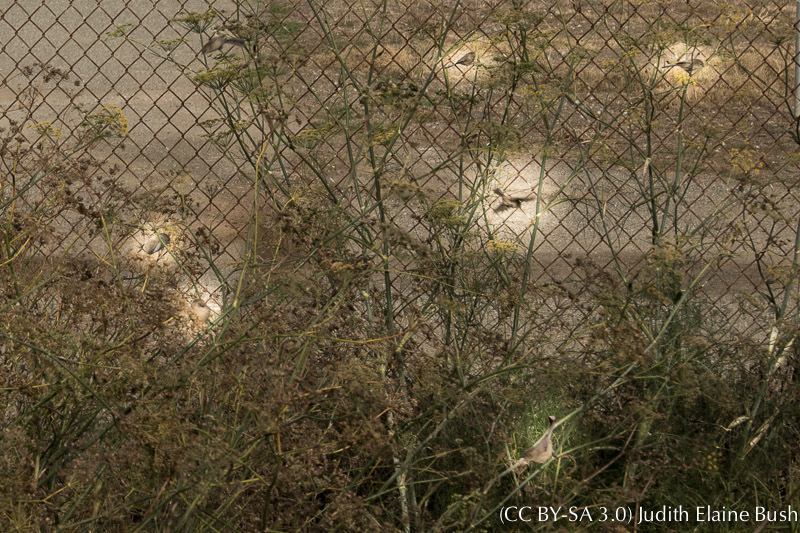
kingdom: Animalia
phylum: Chordata
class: Aves
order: Passeriformes
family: Aegithalidae
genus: Psaltriparus
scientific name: Psaltriparus minimus
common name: American bushtit
